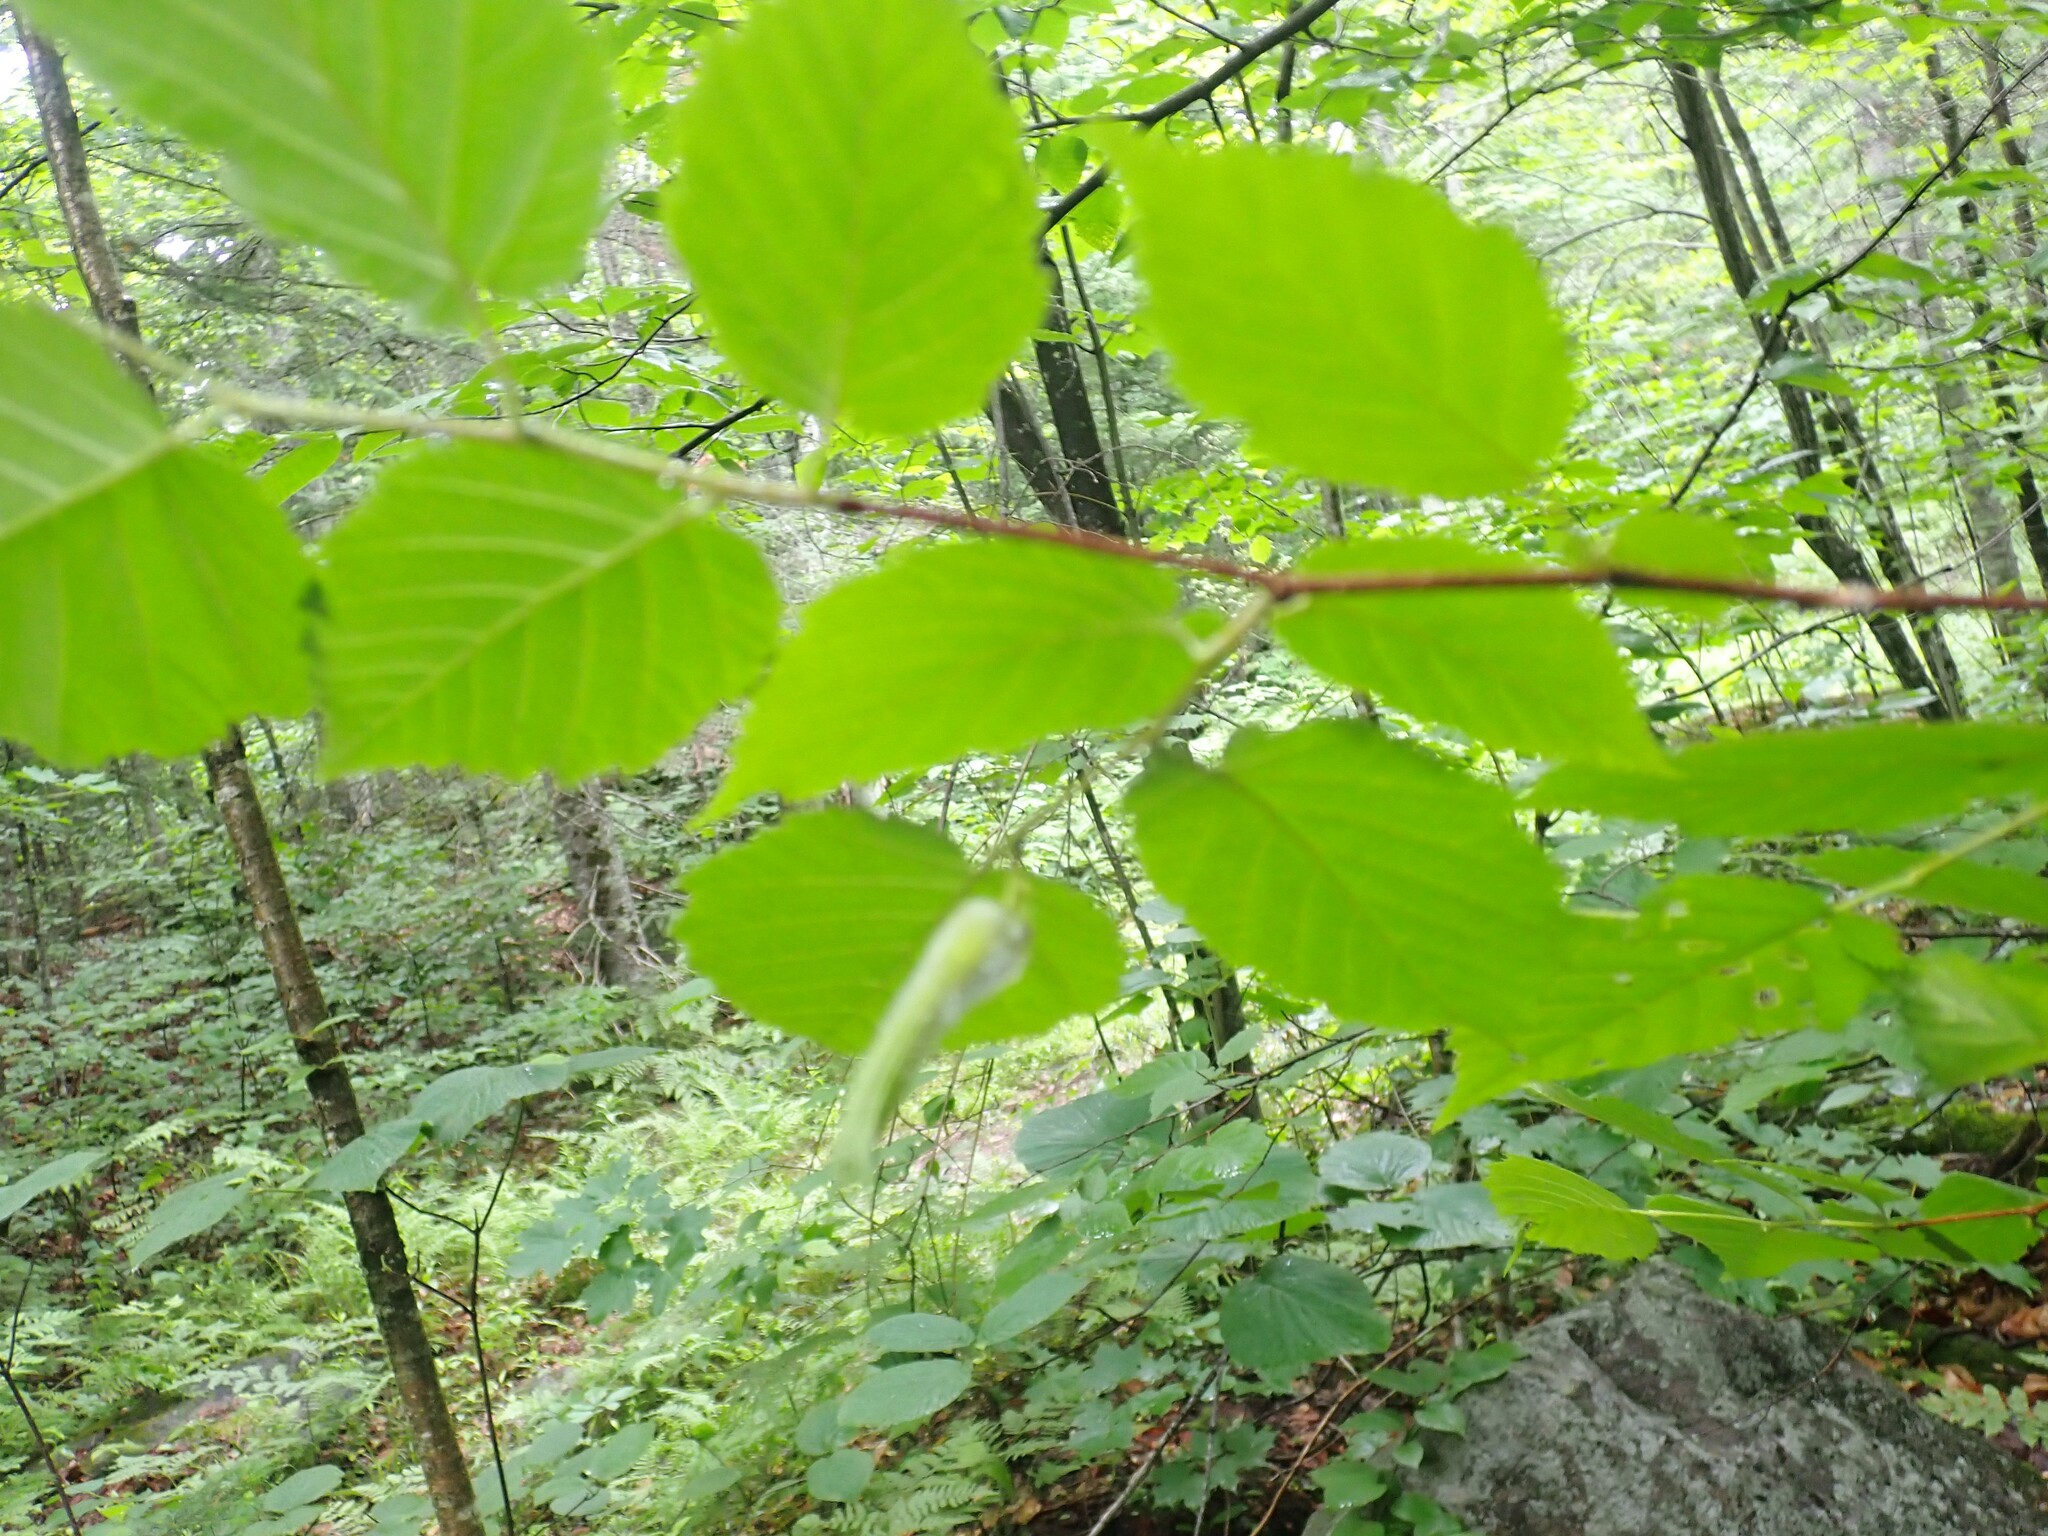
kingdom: Plantae
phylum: Tracheophyta
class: Magnoliopsida
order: Fagales
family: Betulaceae
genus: Corylus
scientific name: Corylus cornuta
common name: Beaked hazel
